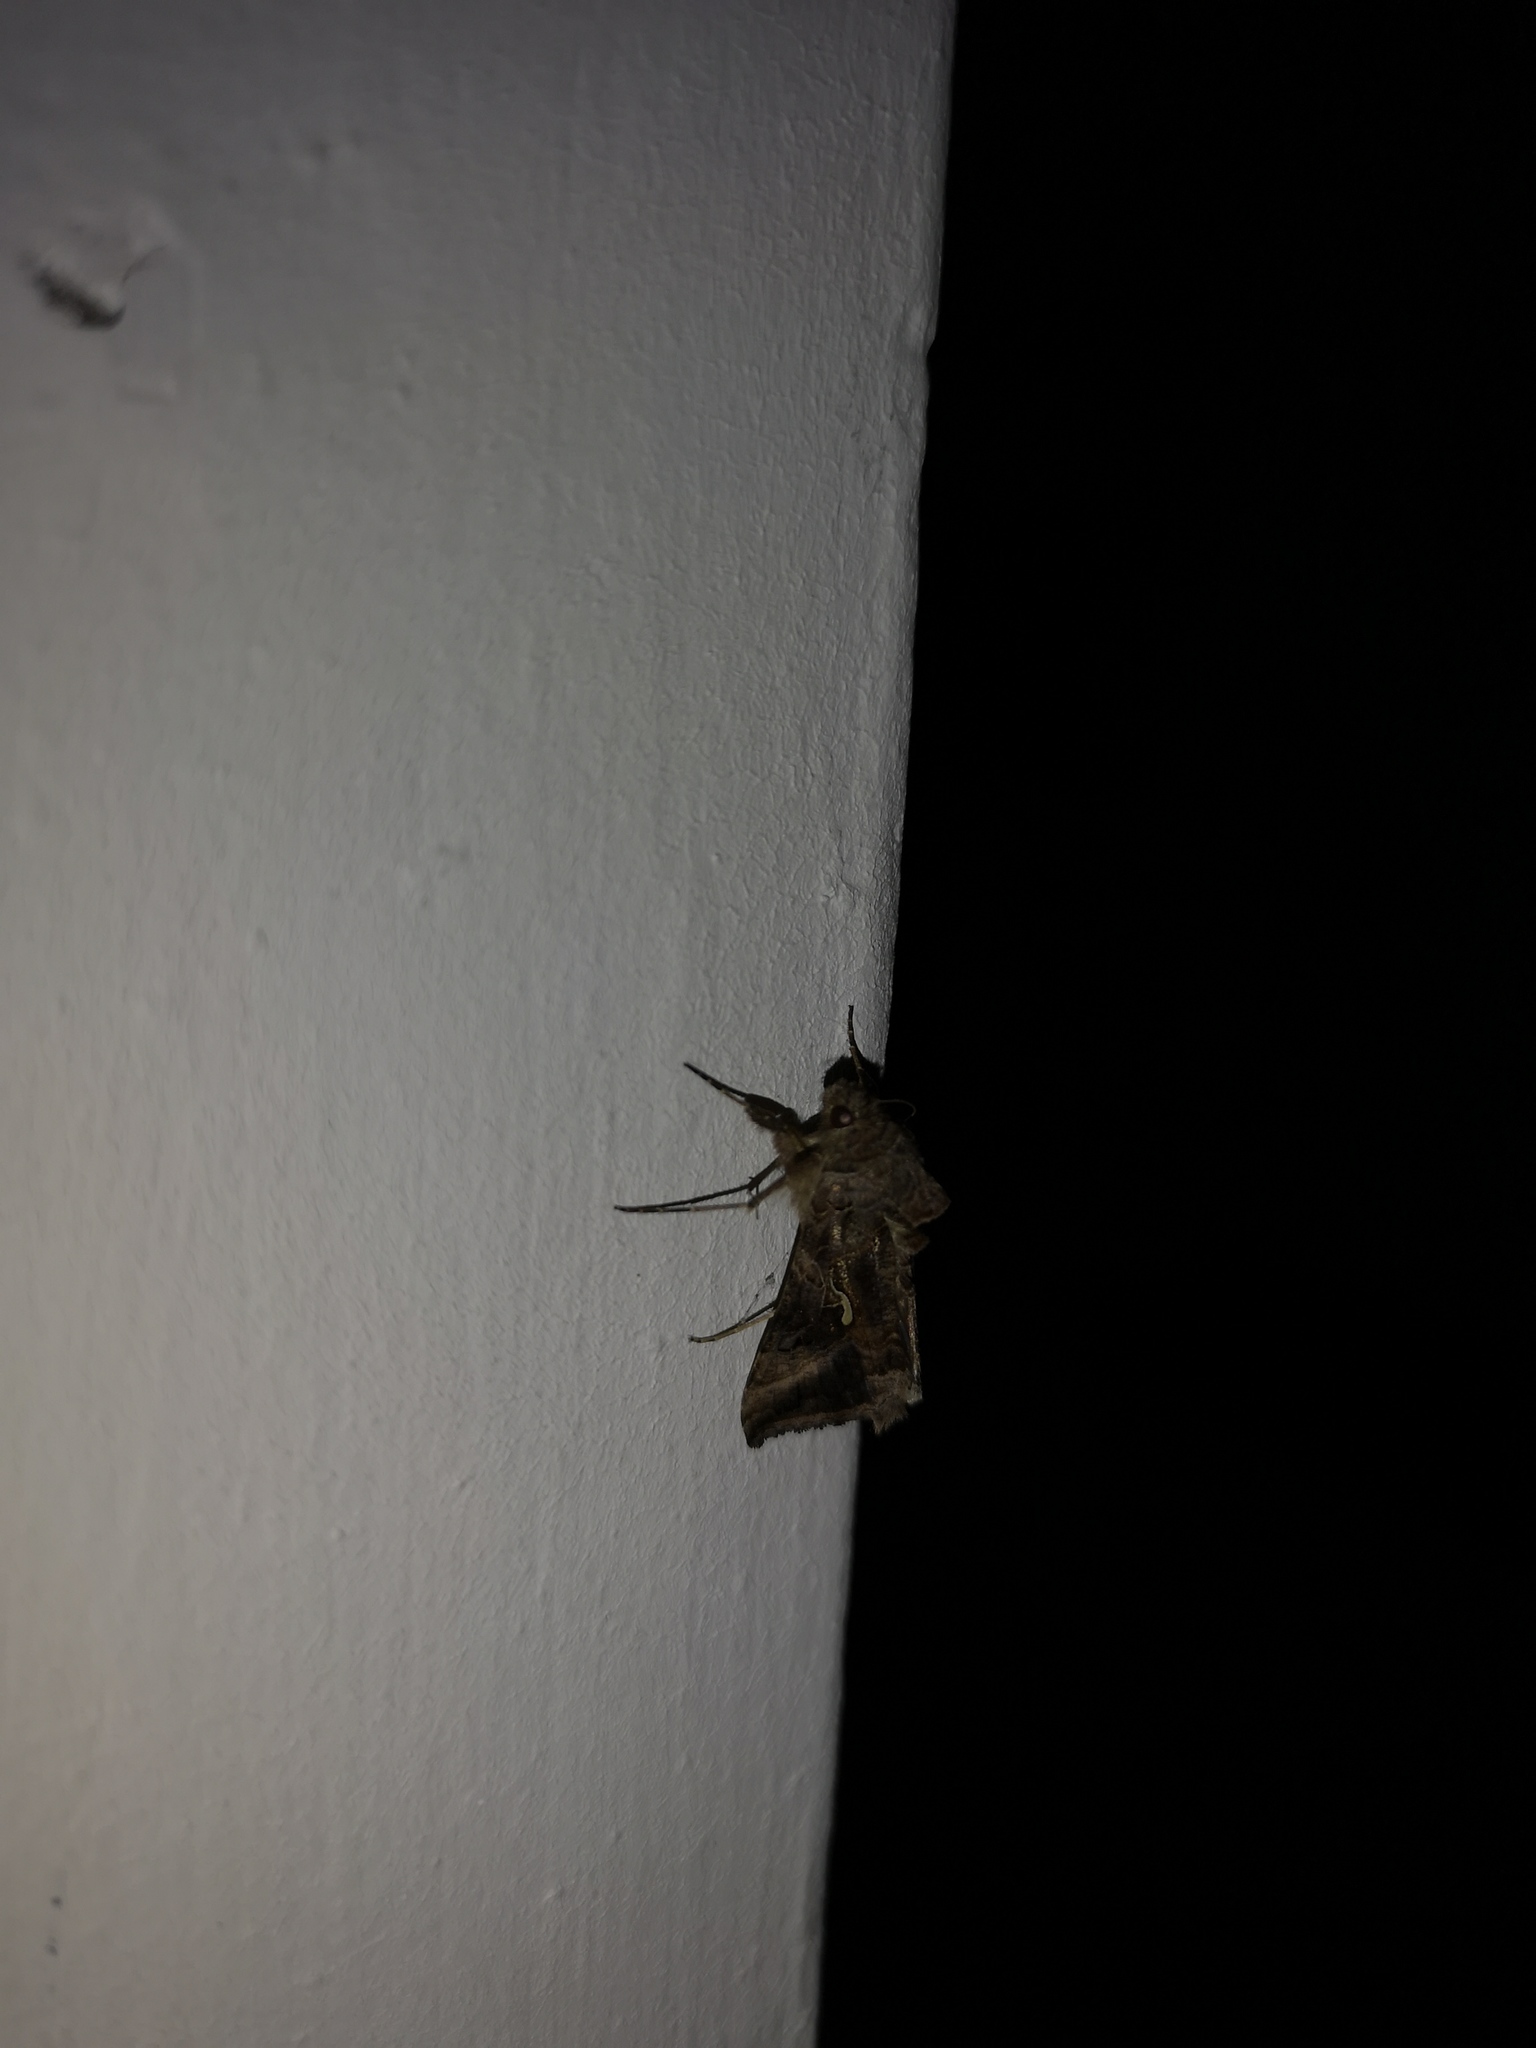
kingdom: Animalia
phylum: Arthropoda
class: Insecta
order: Lepidoptera
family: Noctuidae
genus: Autographa
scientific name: Autographa gamma
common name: Silver y
